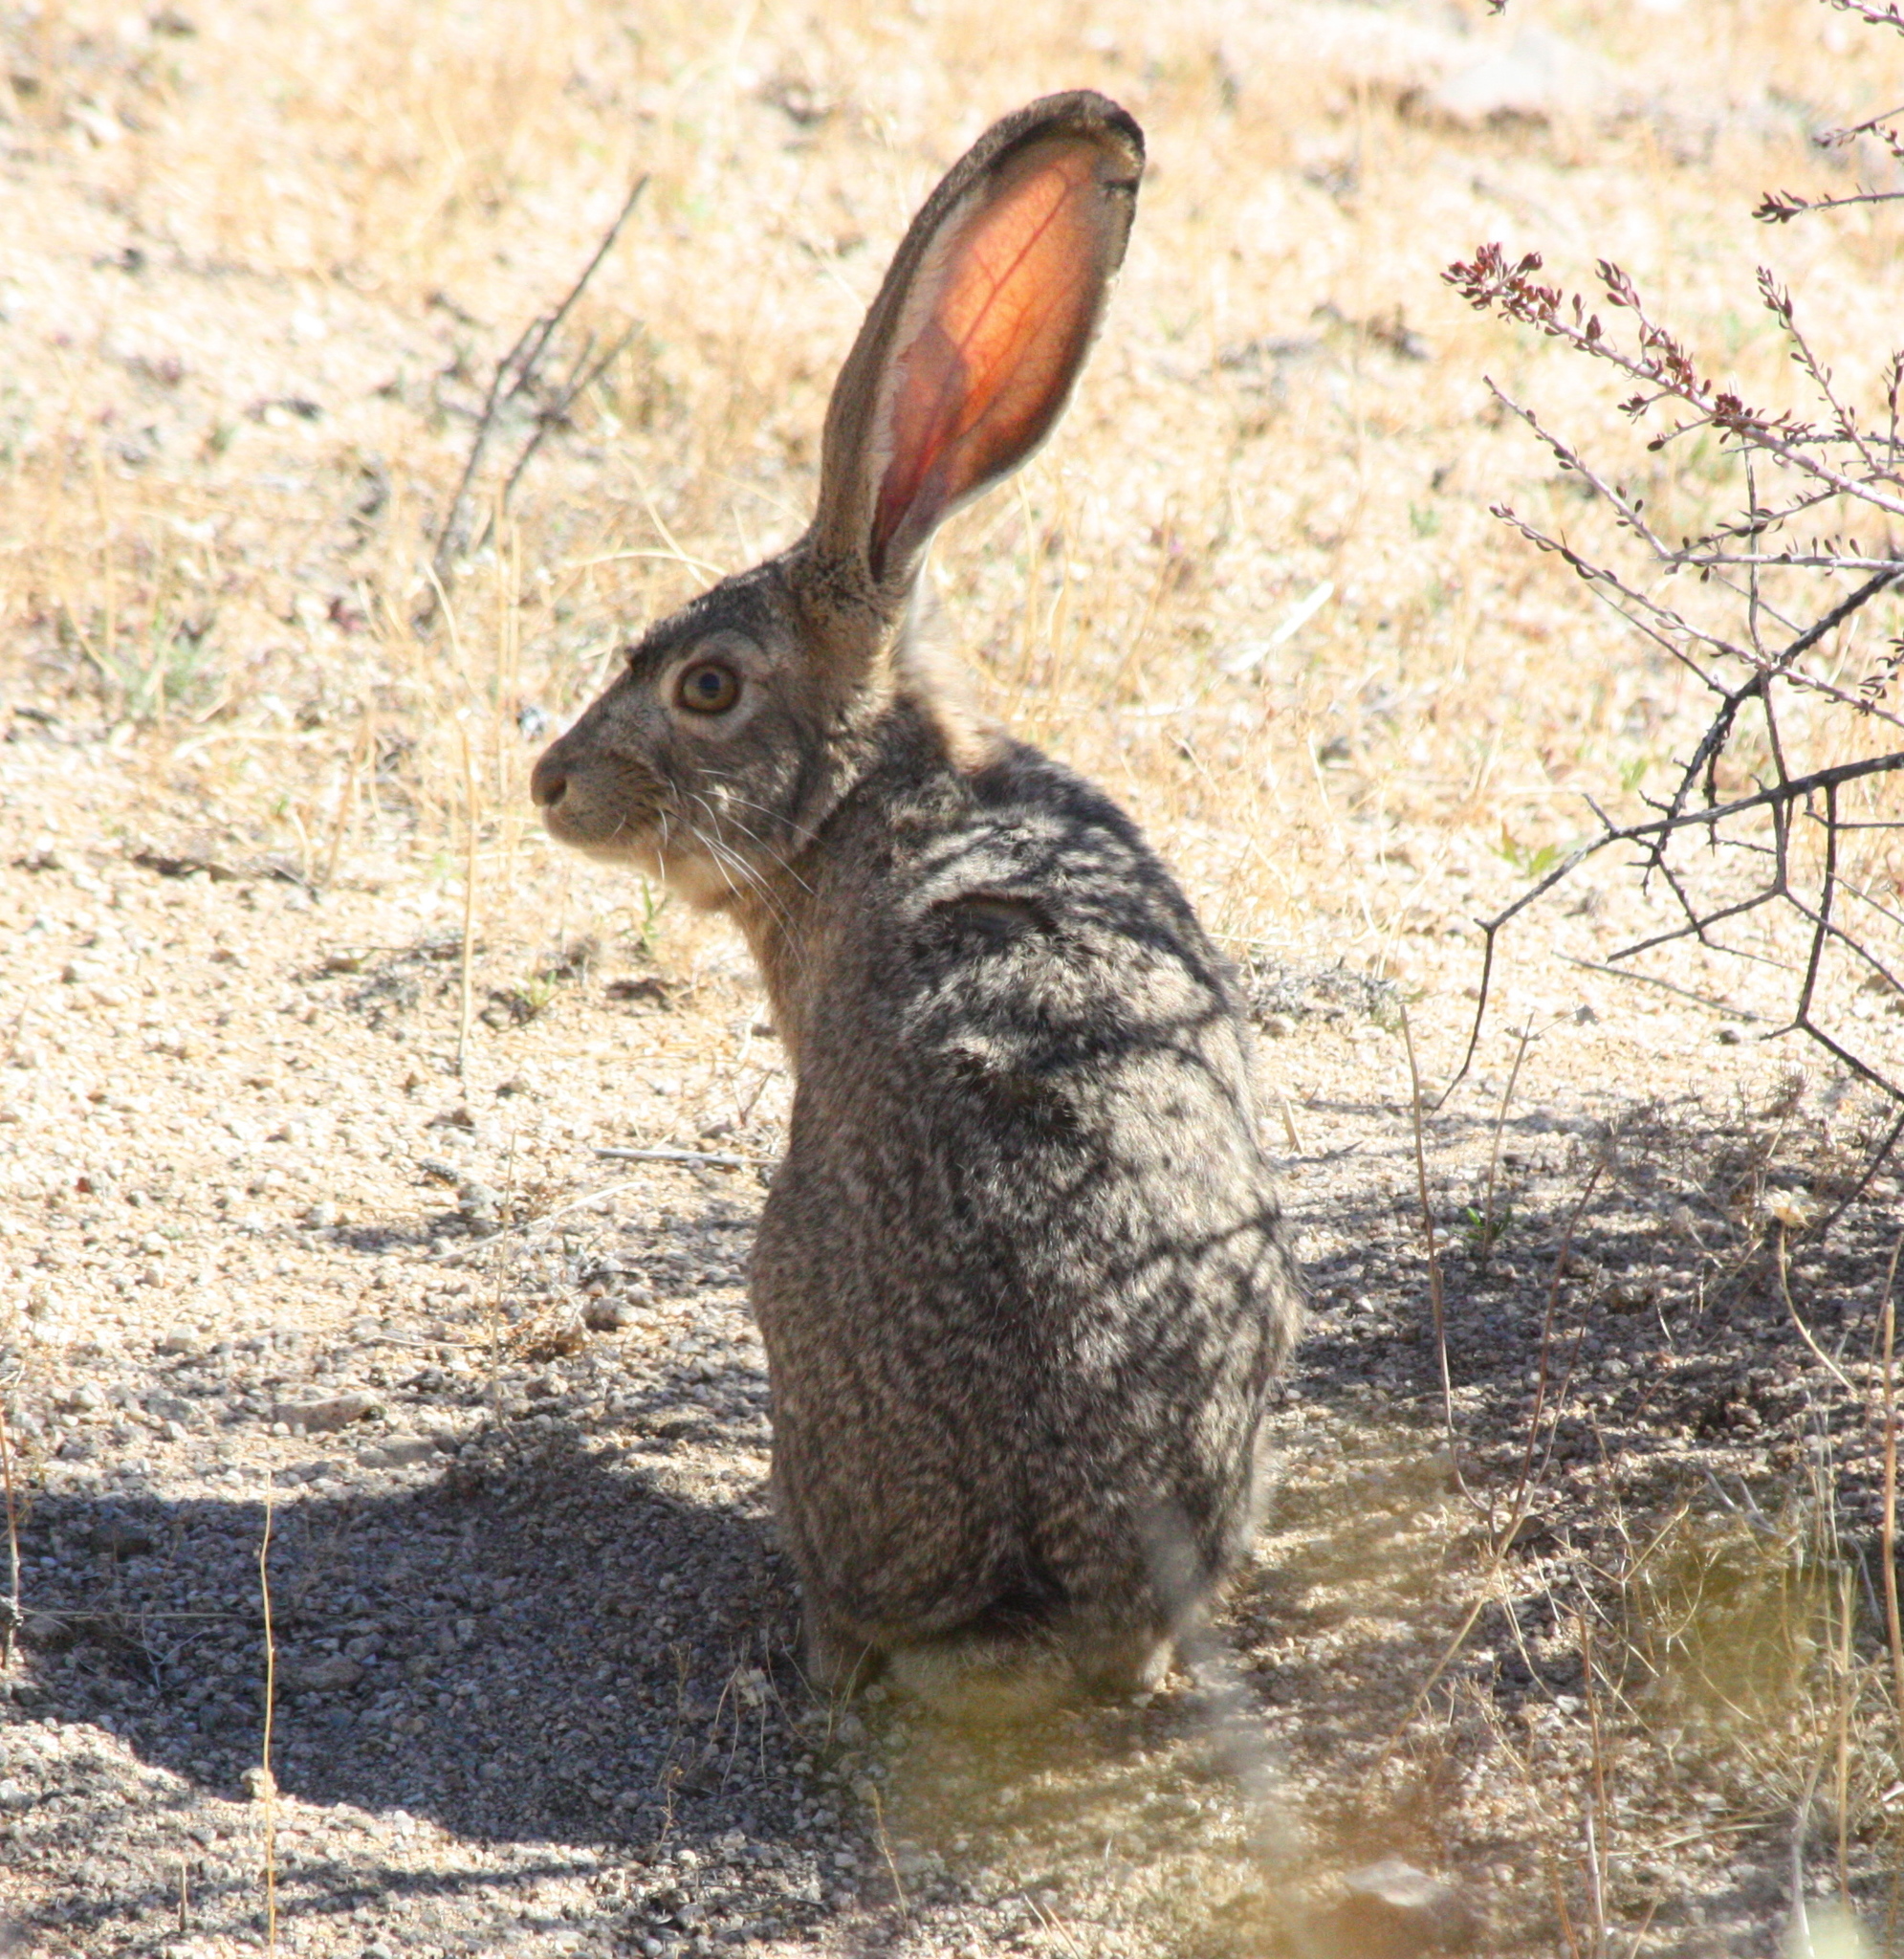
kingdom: Animalia
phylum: Chordata
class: Mammalia
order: Lagomorpha
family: Leporidae
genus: Lepus
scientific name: Lepus californicus
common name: Black-tailed jackrabbit
